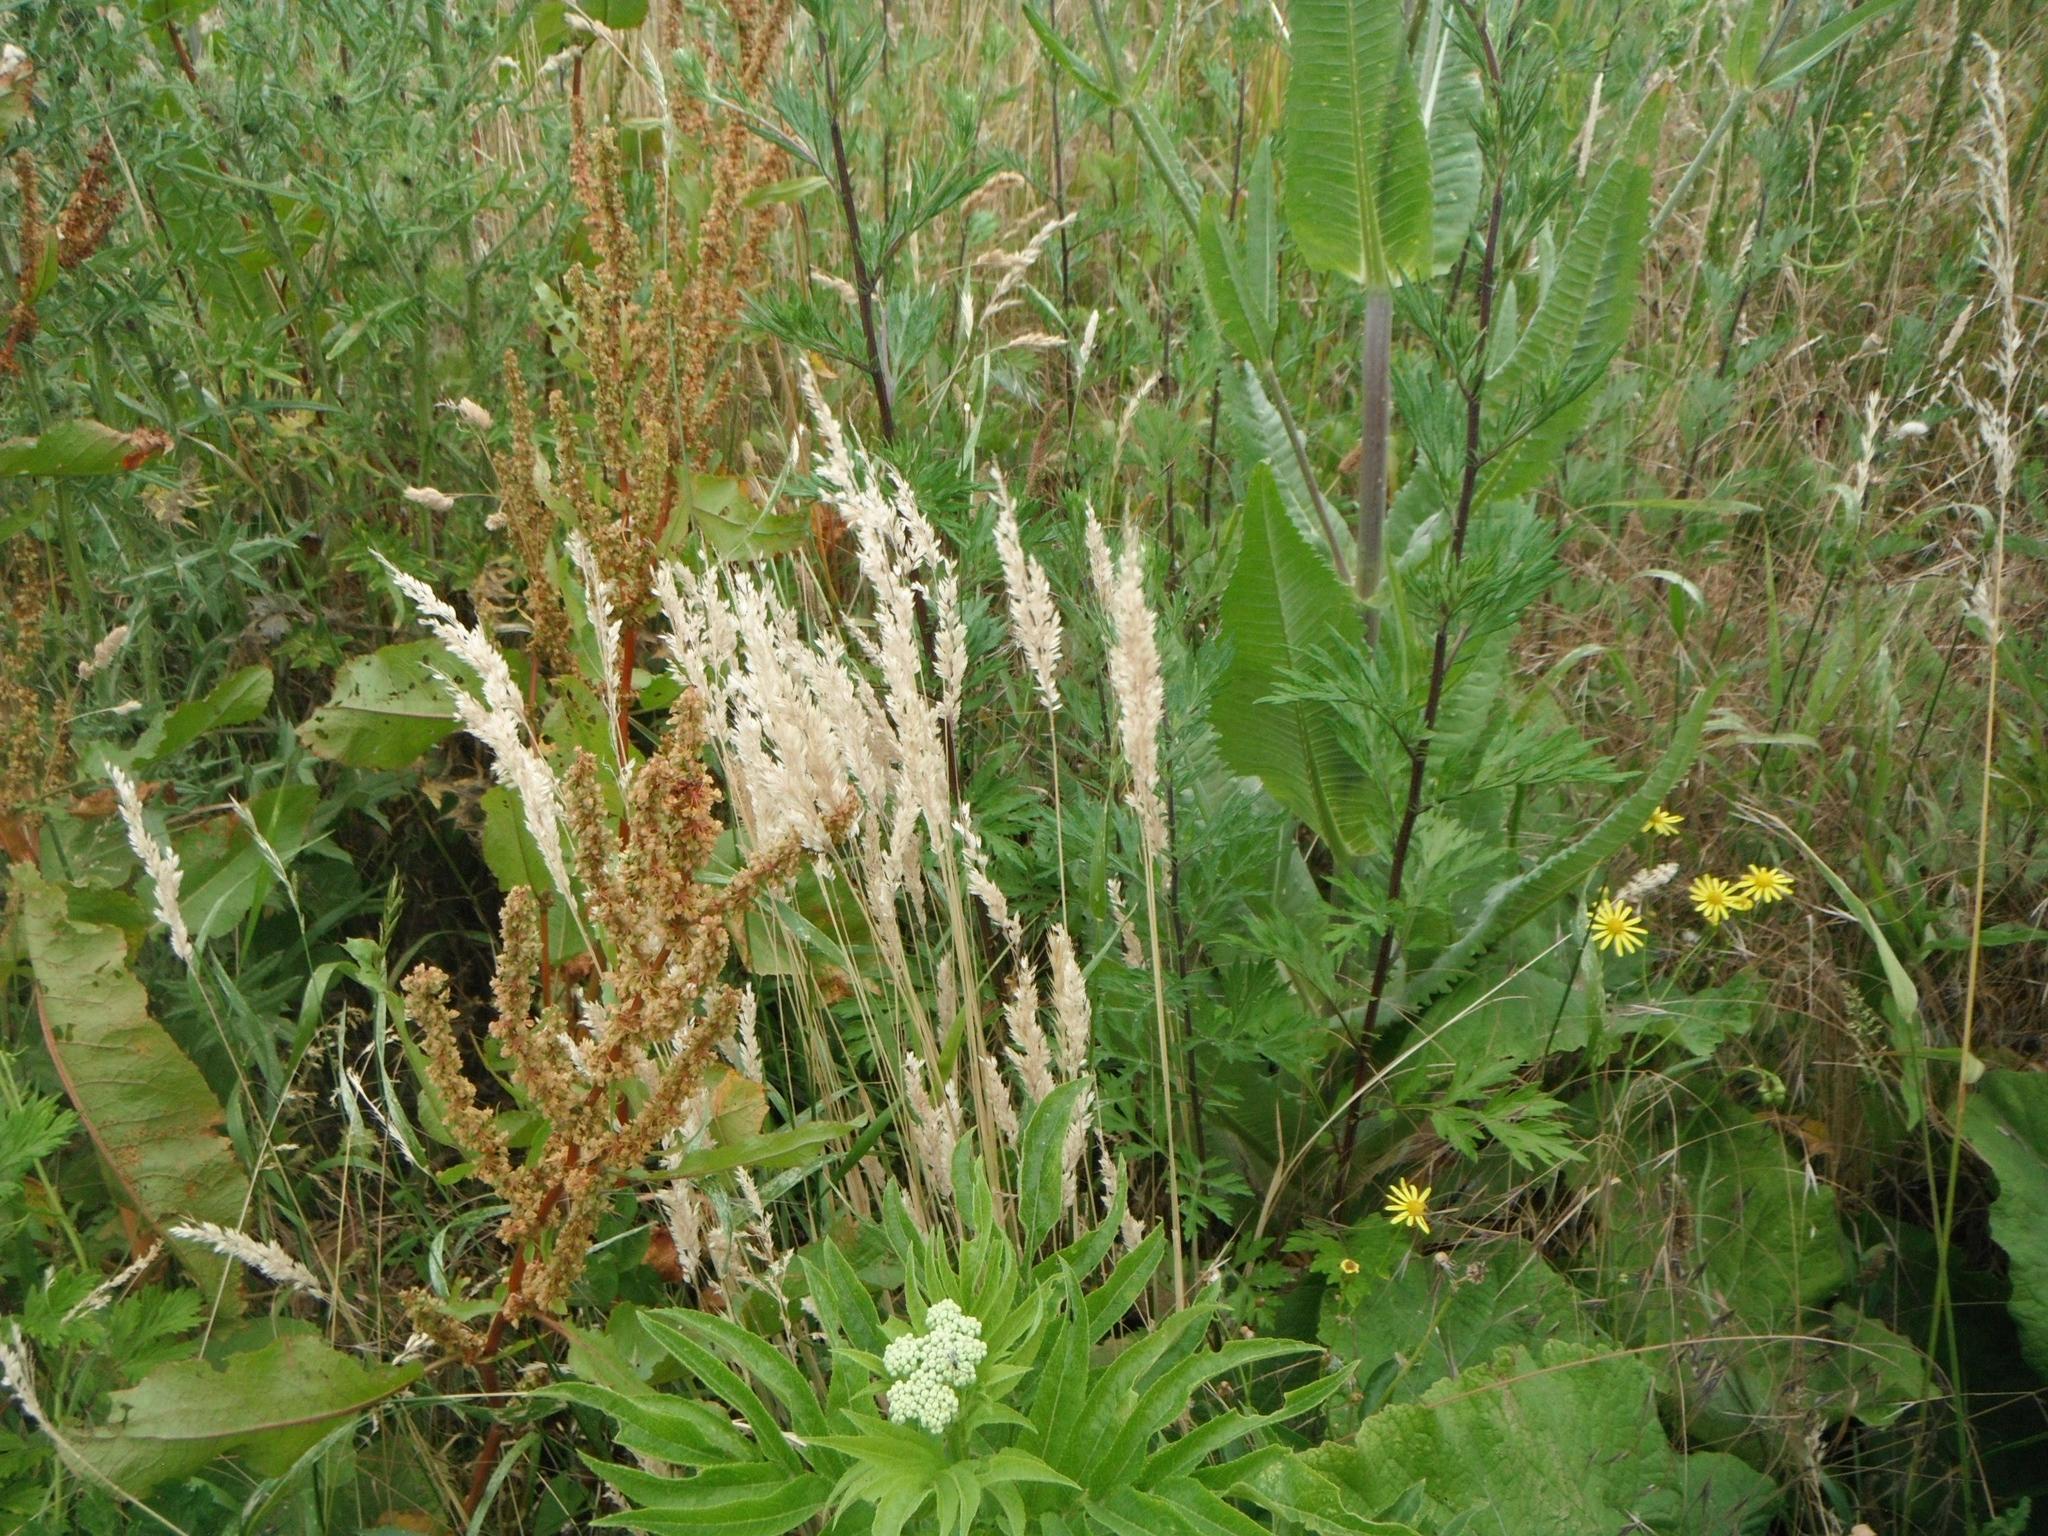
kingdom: Plantae
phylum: Tracheophyta
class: Liliopsida
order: Poales
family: Poaceae
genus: Holcus
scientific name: Holcus lanatus
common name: Yorkshire-fog
